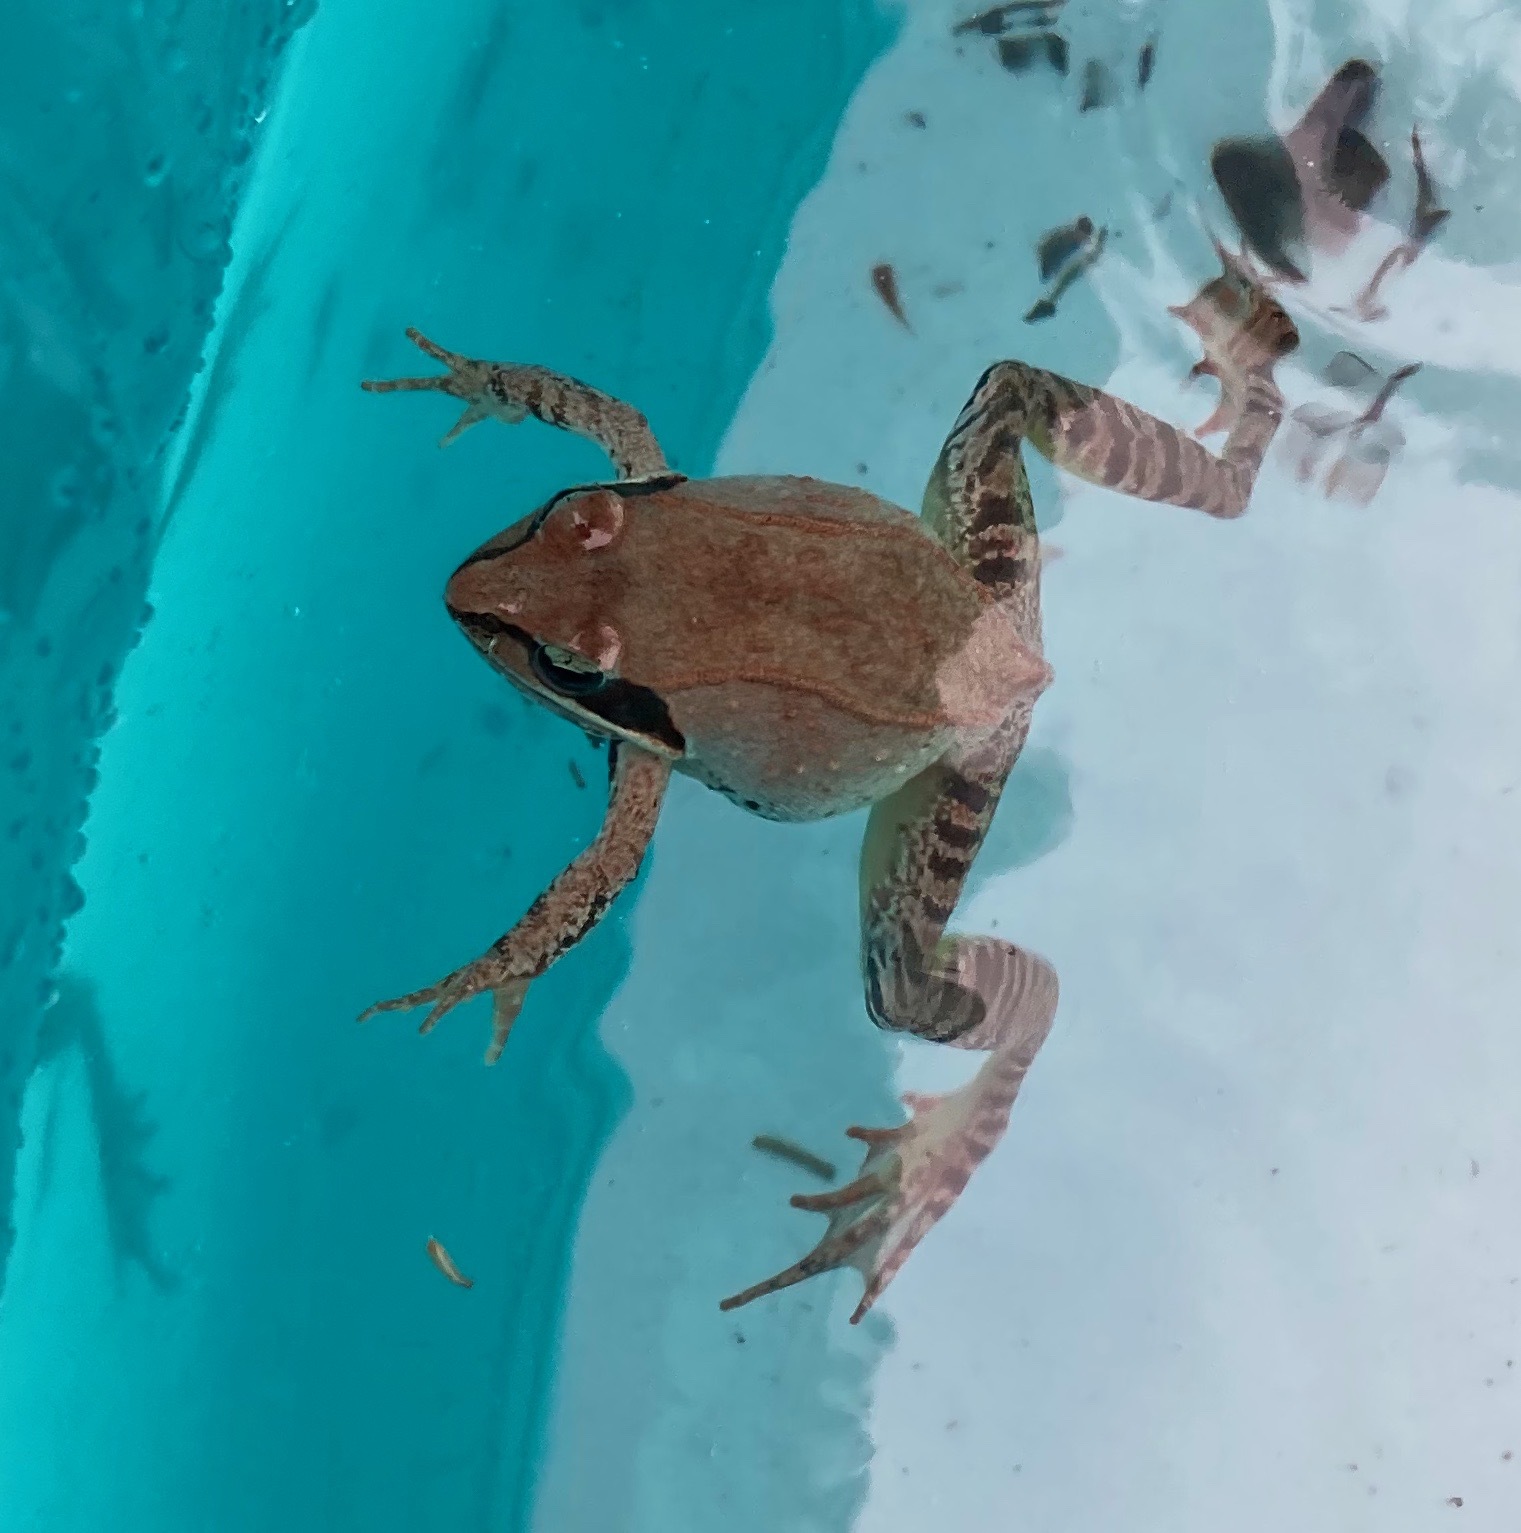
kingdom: Animalia
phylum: Chordata
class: Amphibia
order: Anura
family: Ranidae
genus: Lithobates
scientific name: Lithobates sylvaticus
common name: Wood frog
